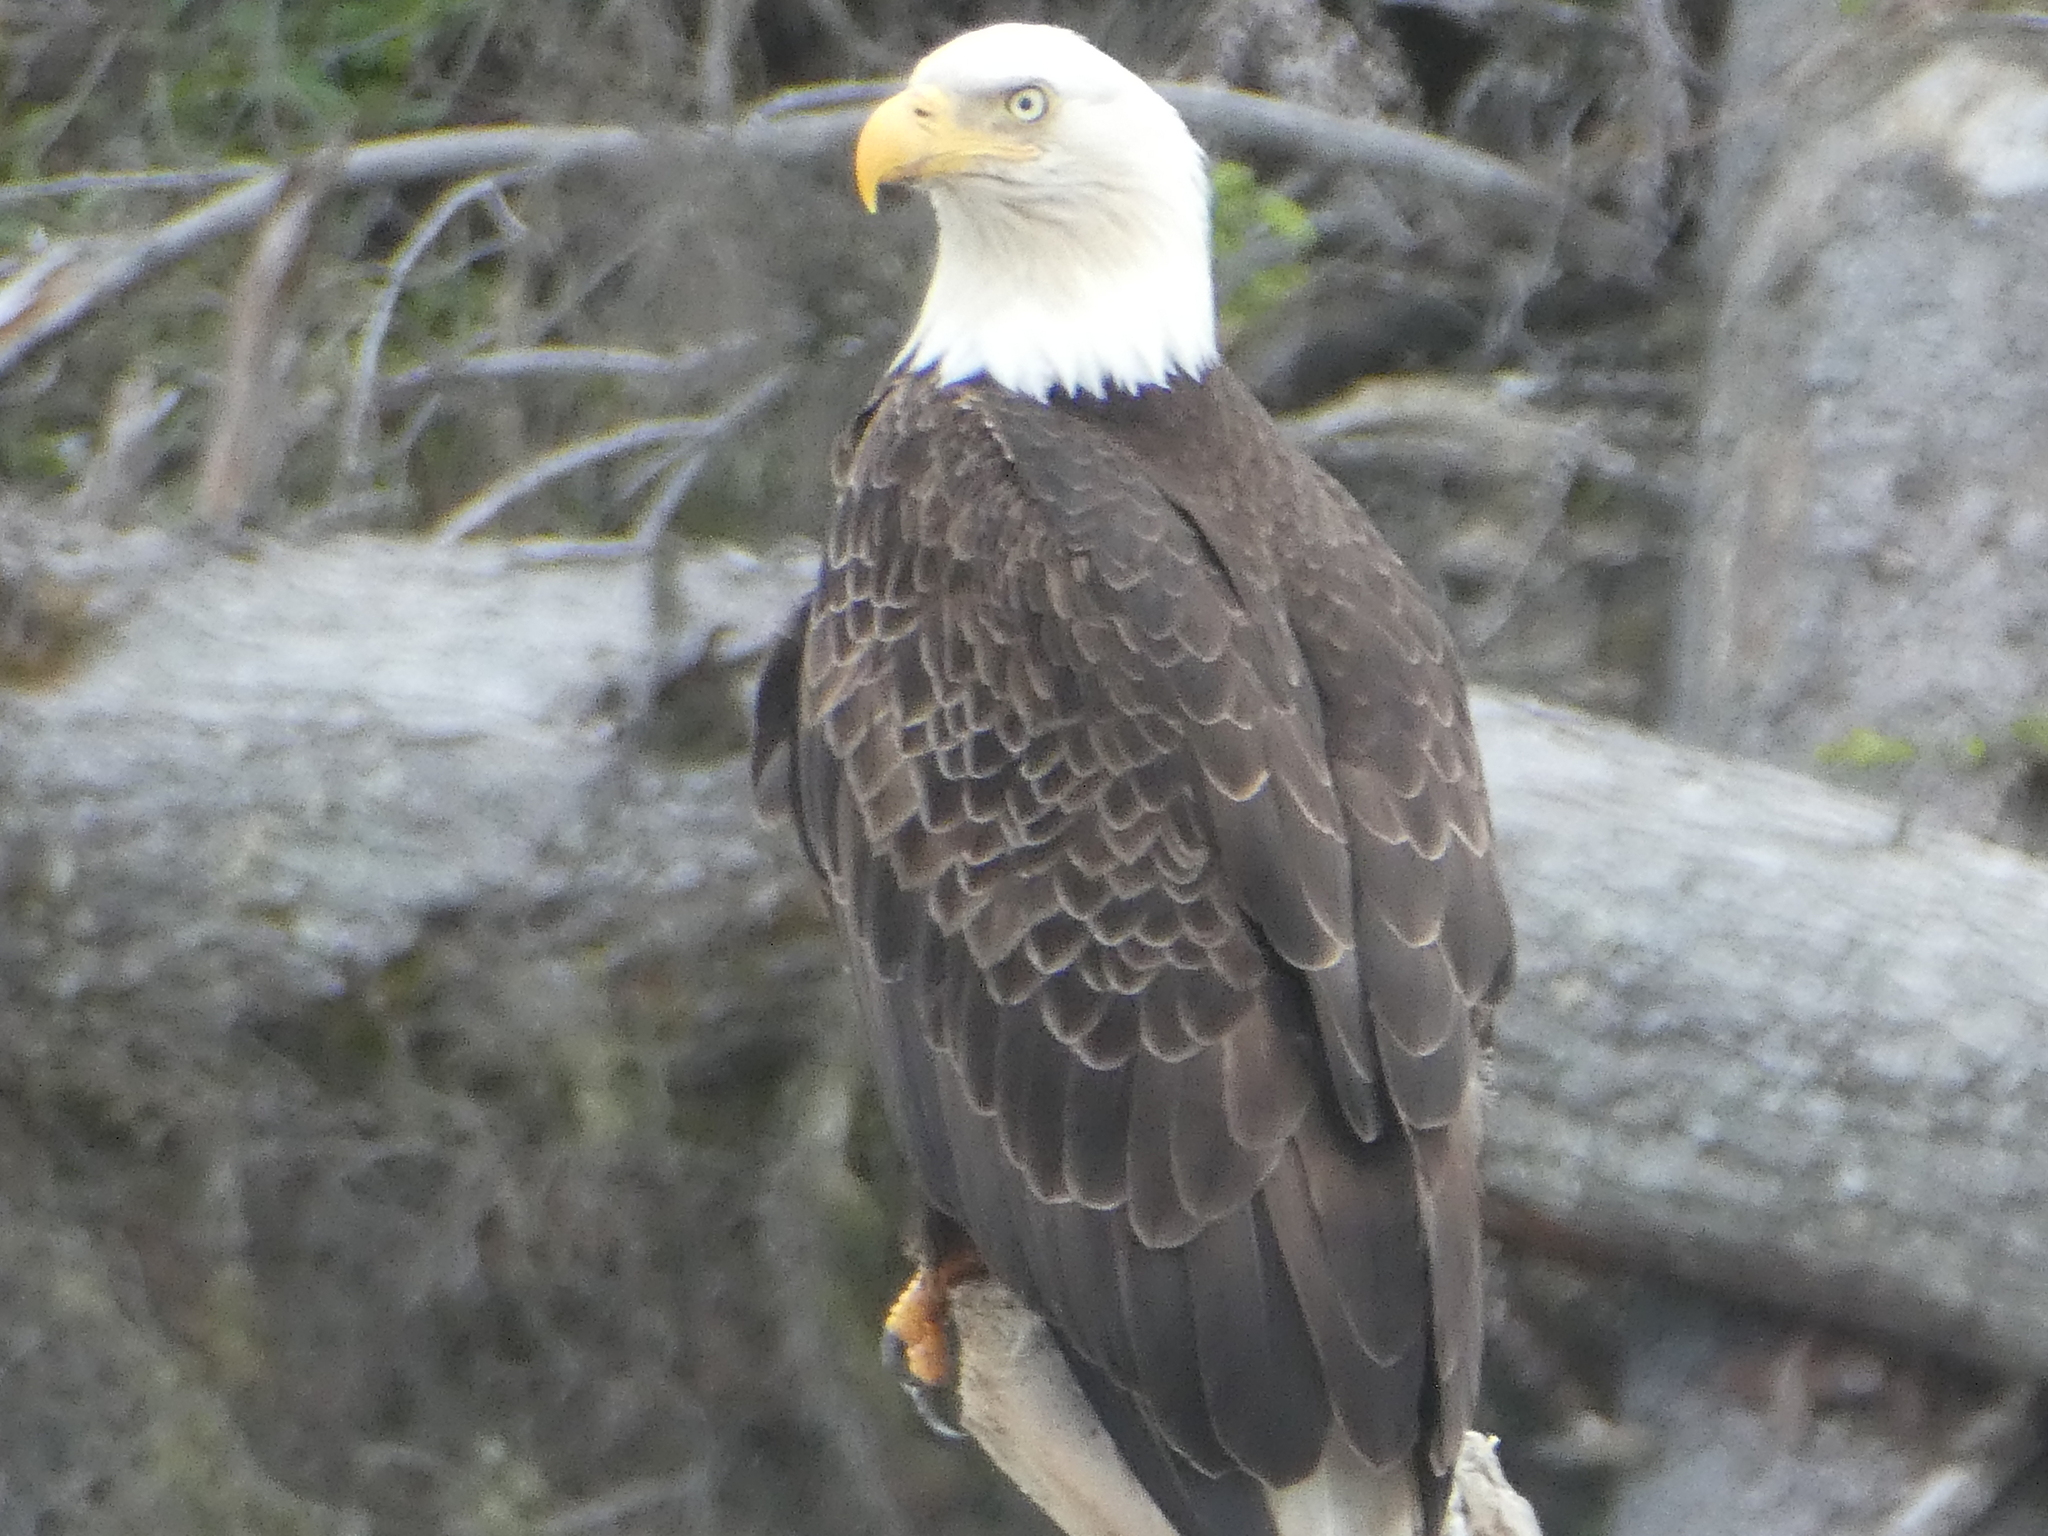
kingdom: Animalia
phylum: Chordata
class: Aves
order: Accipitriformes
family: Accipitridae
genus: Haliaeetus
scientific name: Haliaeetus leucocephalus
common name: Bald eagle
